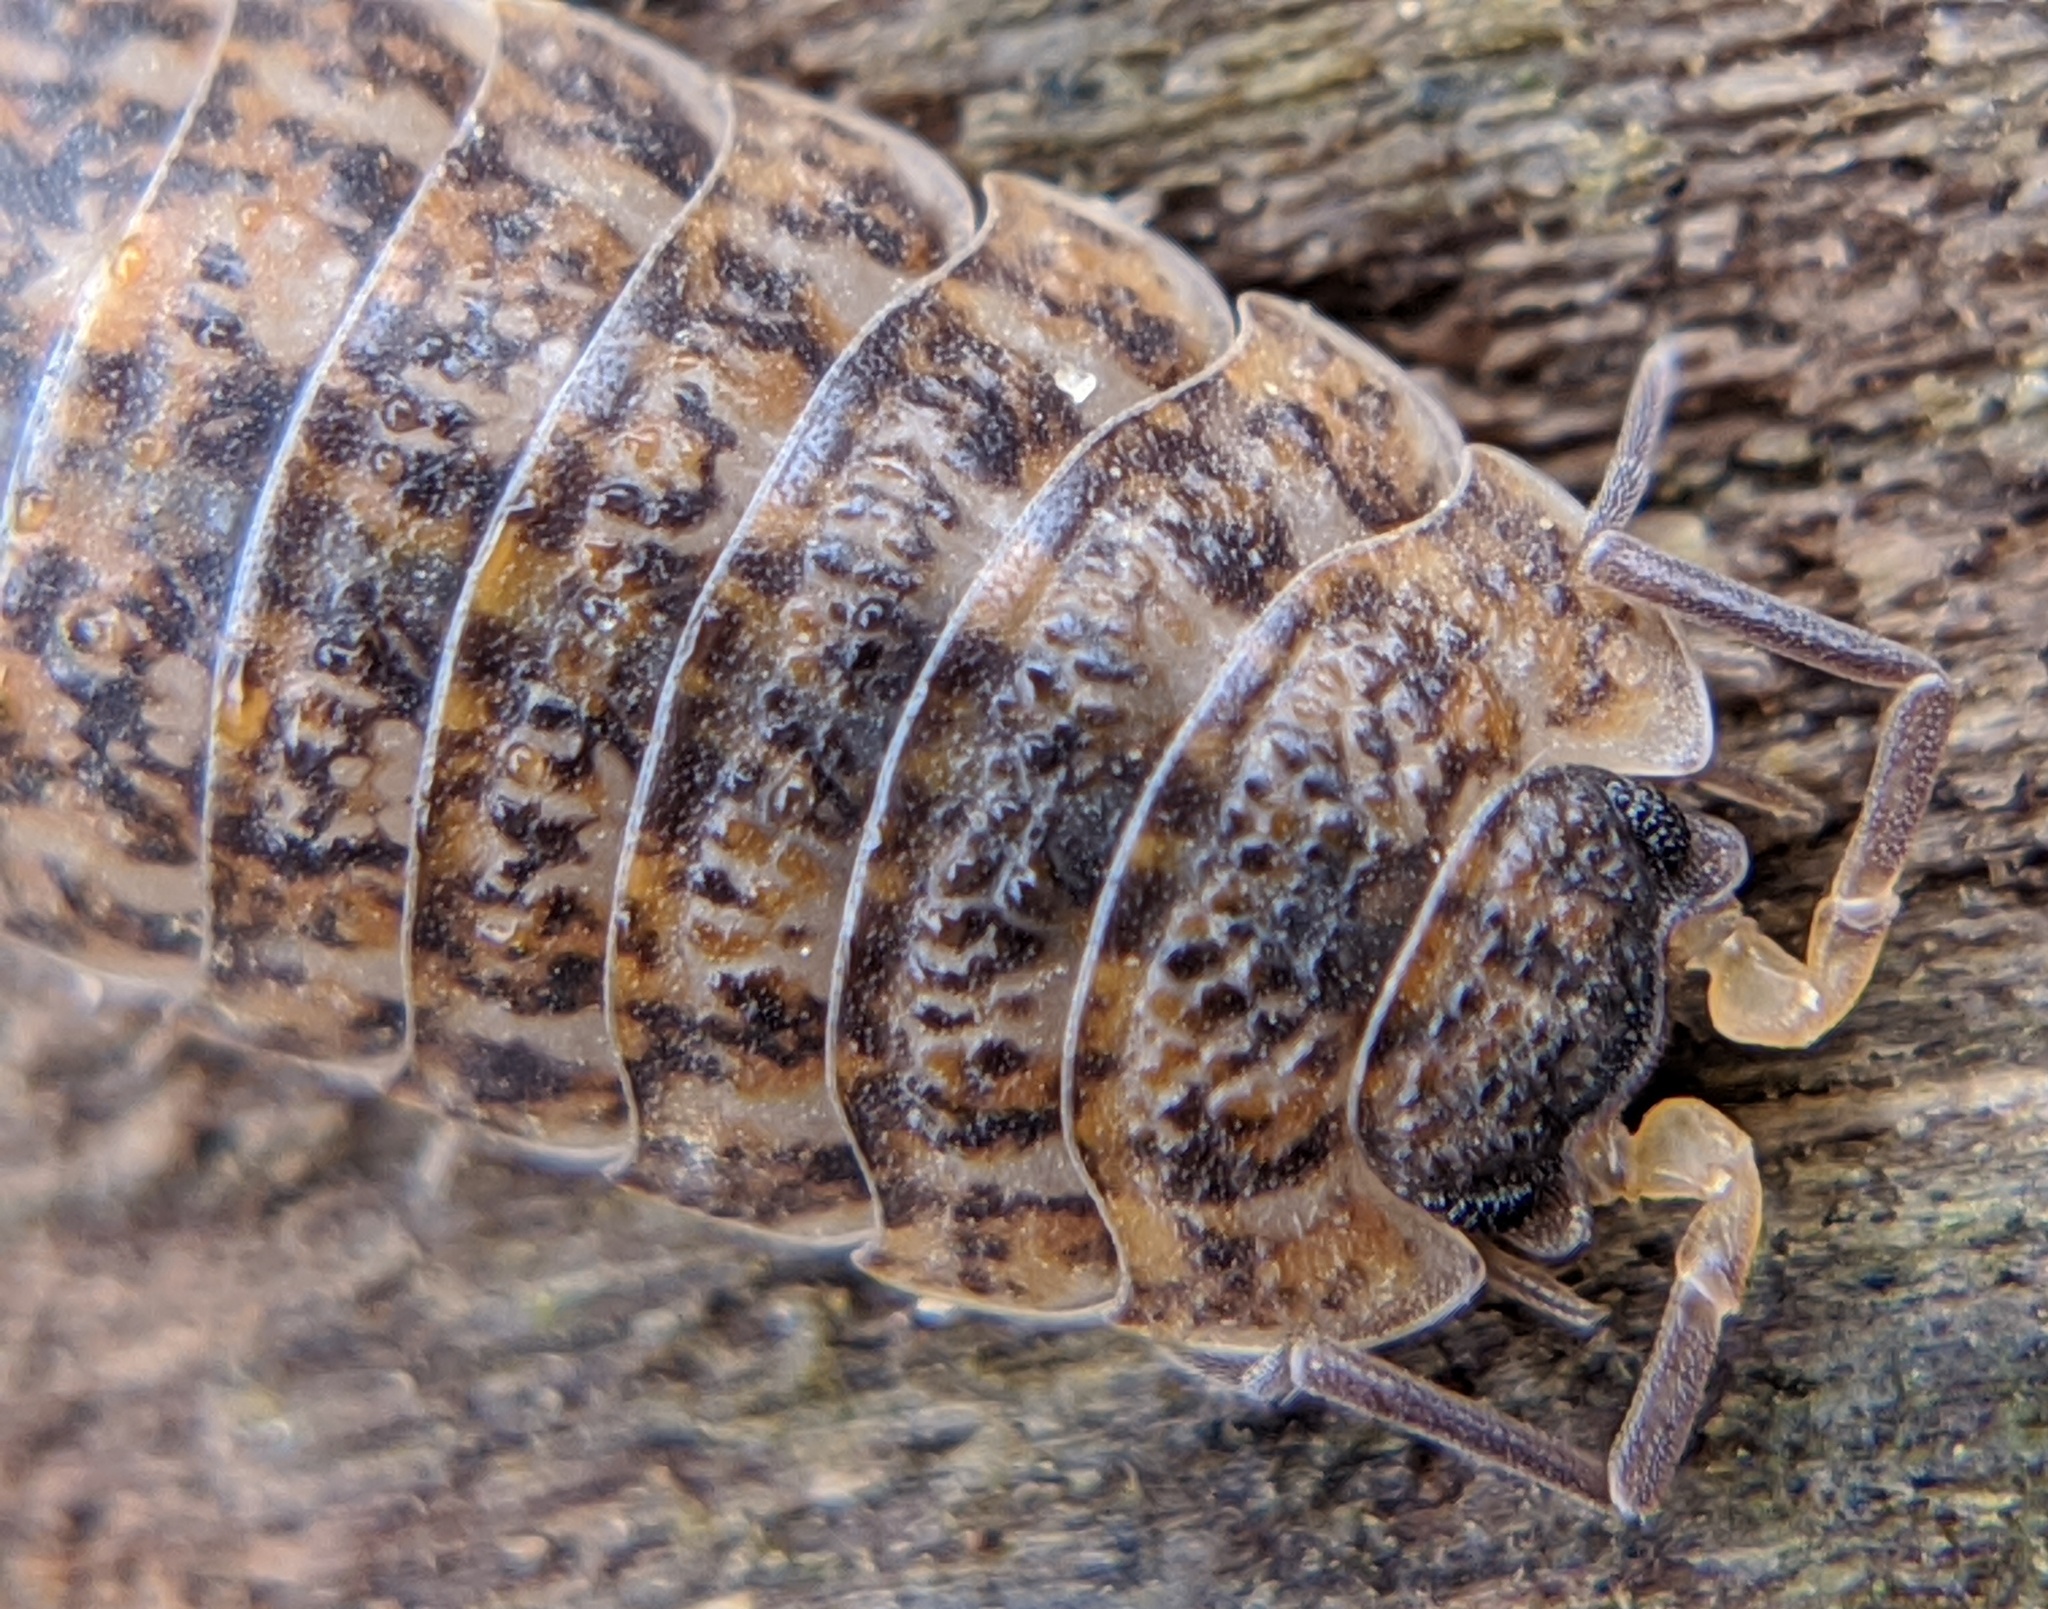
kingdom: Animalia
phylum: Arthropoda
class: Malacostraca
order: Isopoda
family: Trachelipodidae
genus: Trachelipus
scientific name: Trachelipus rathkii
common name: Isopod
